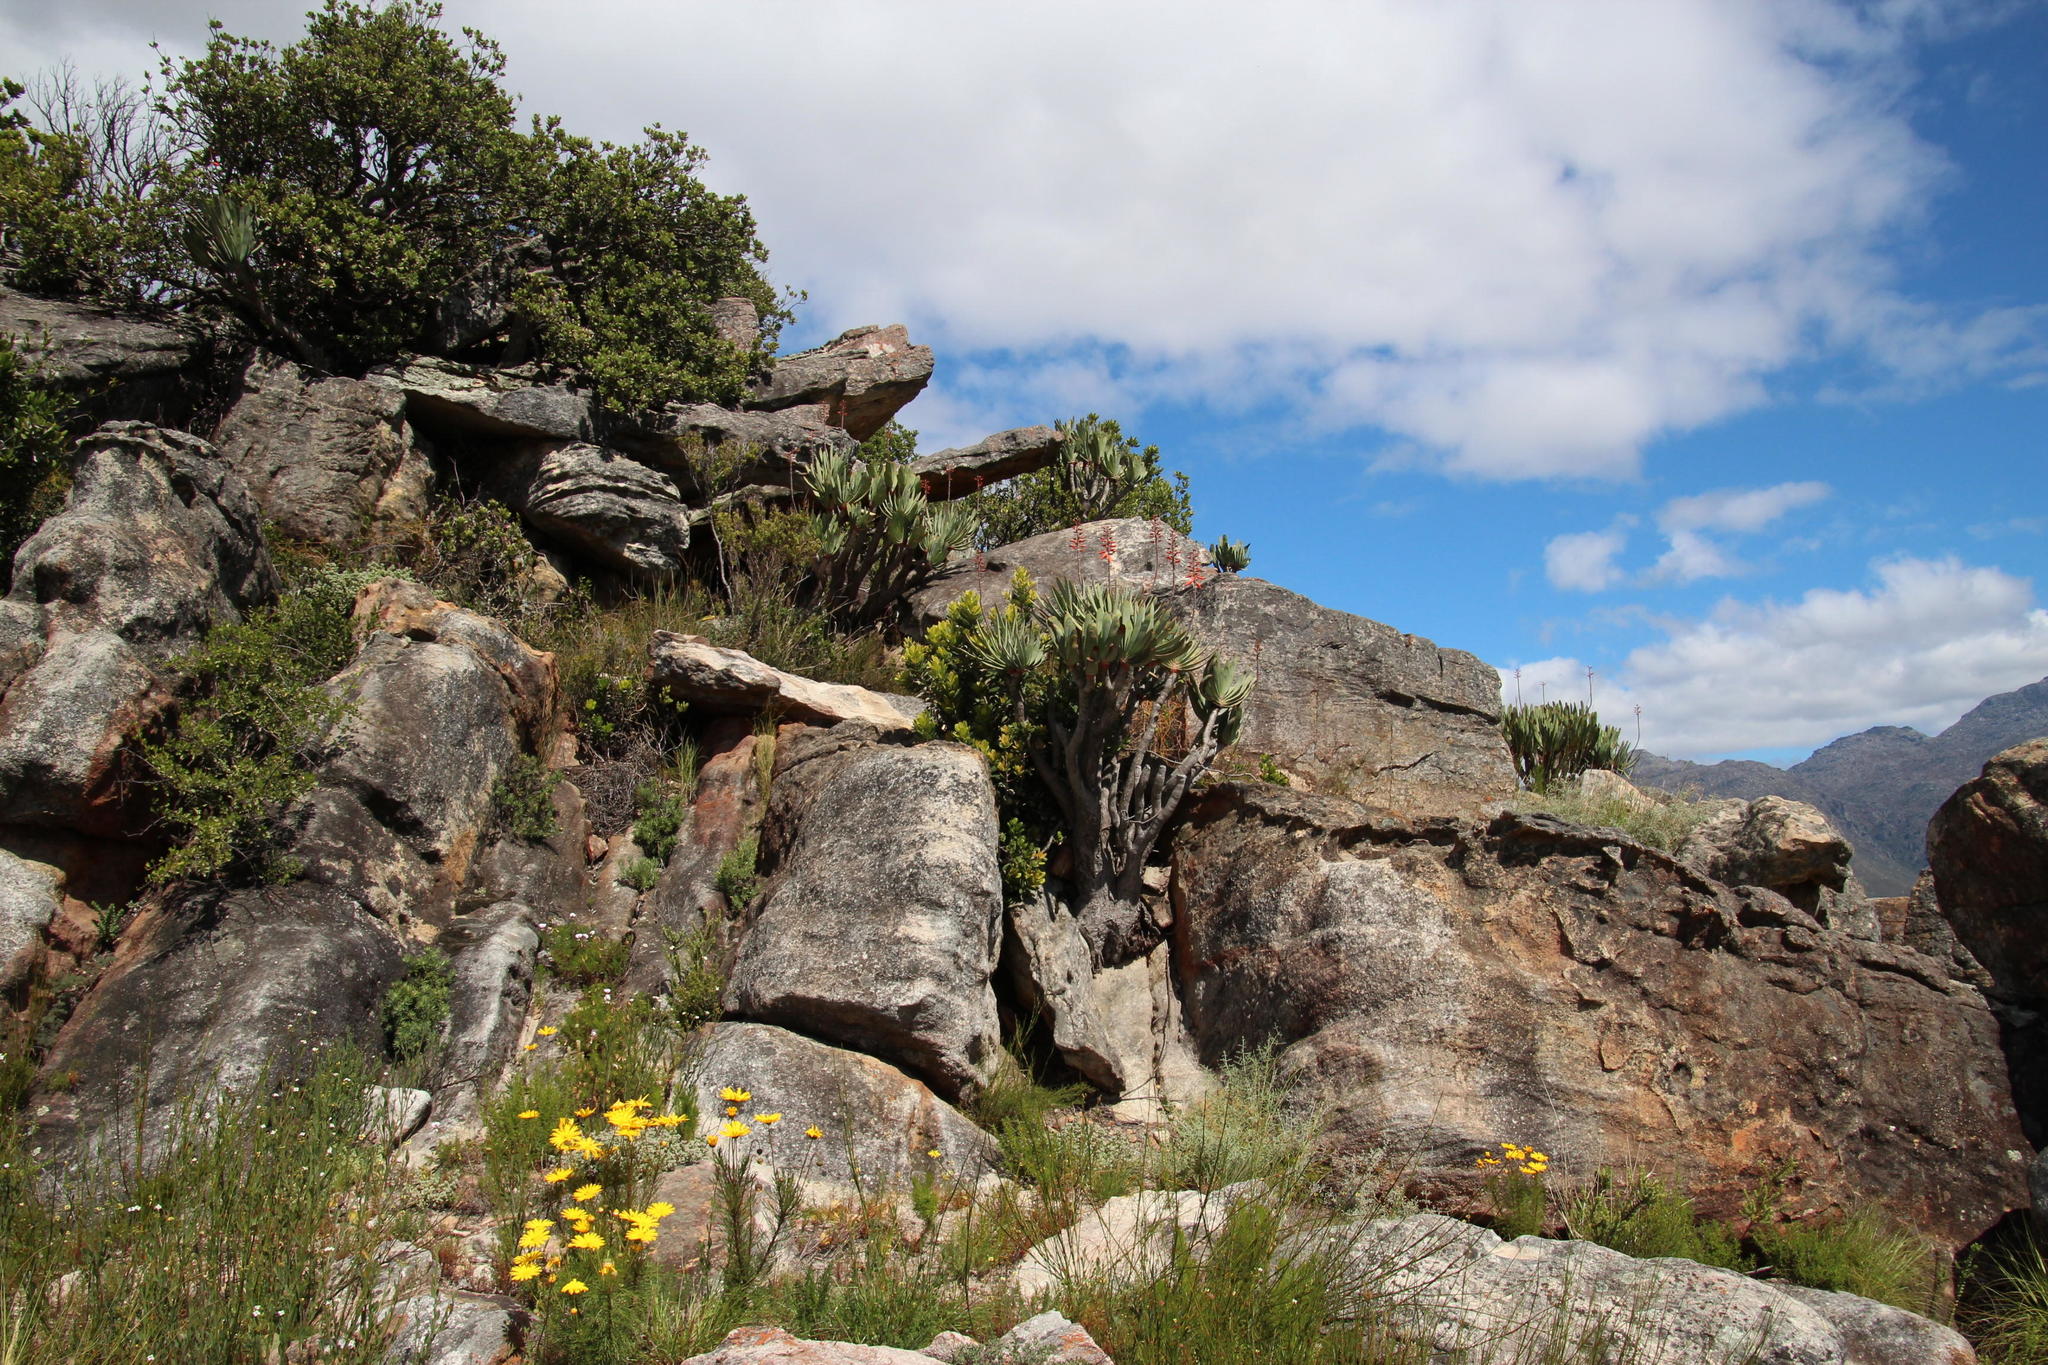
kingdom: Plantae
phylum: Tracheophyta
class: Liliopsida
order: Asparagales
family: Asphodelaceae
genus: Kumara
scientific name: Kumara plicatilis
